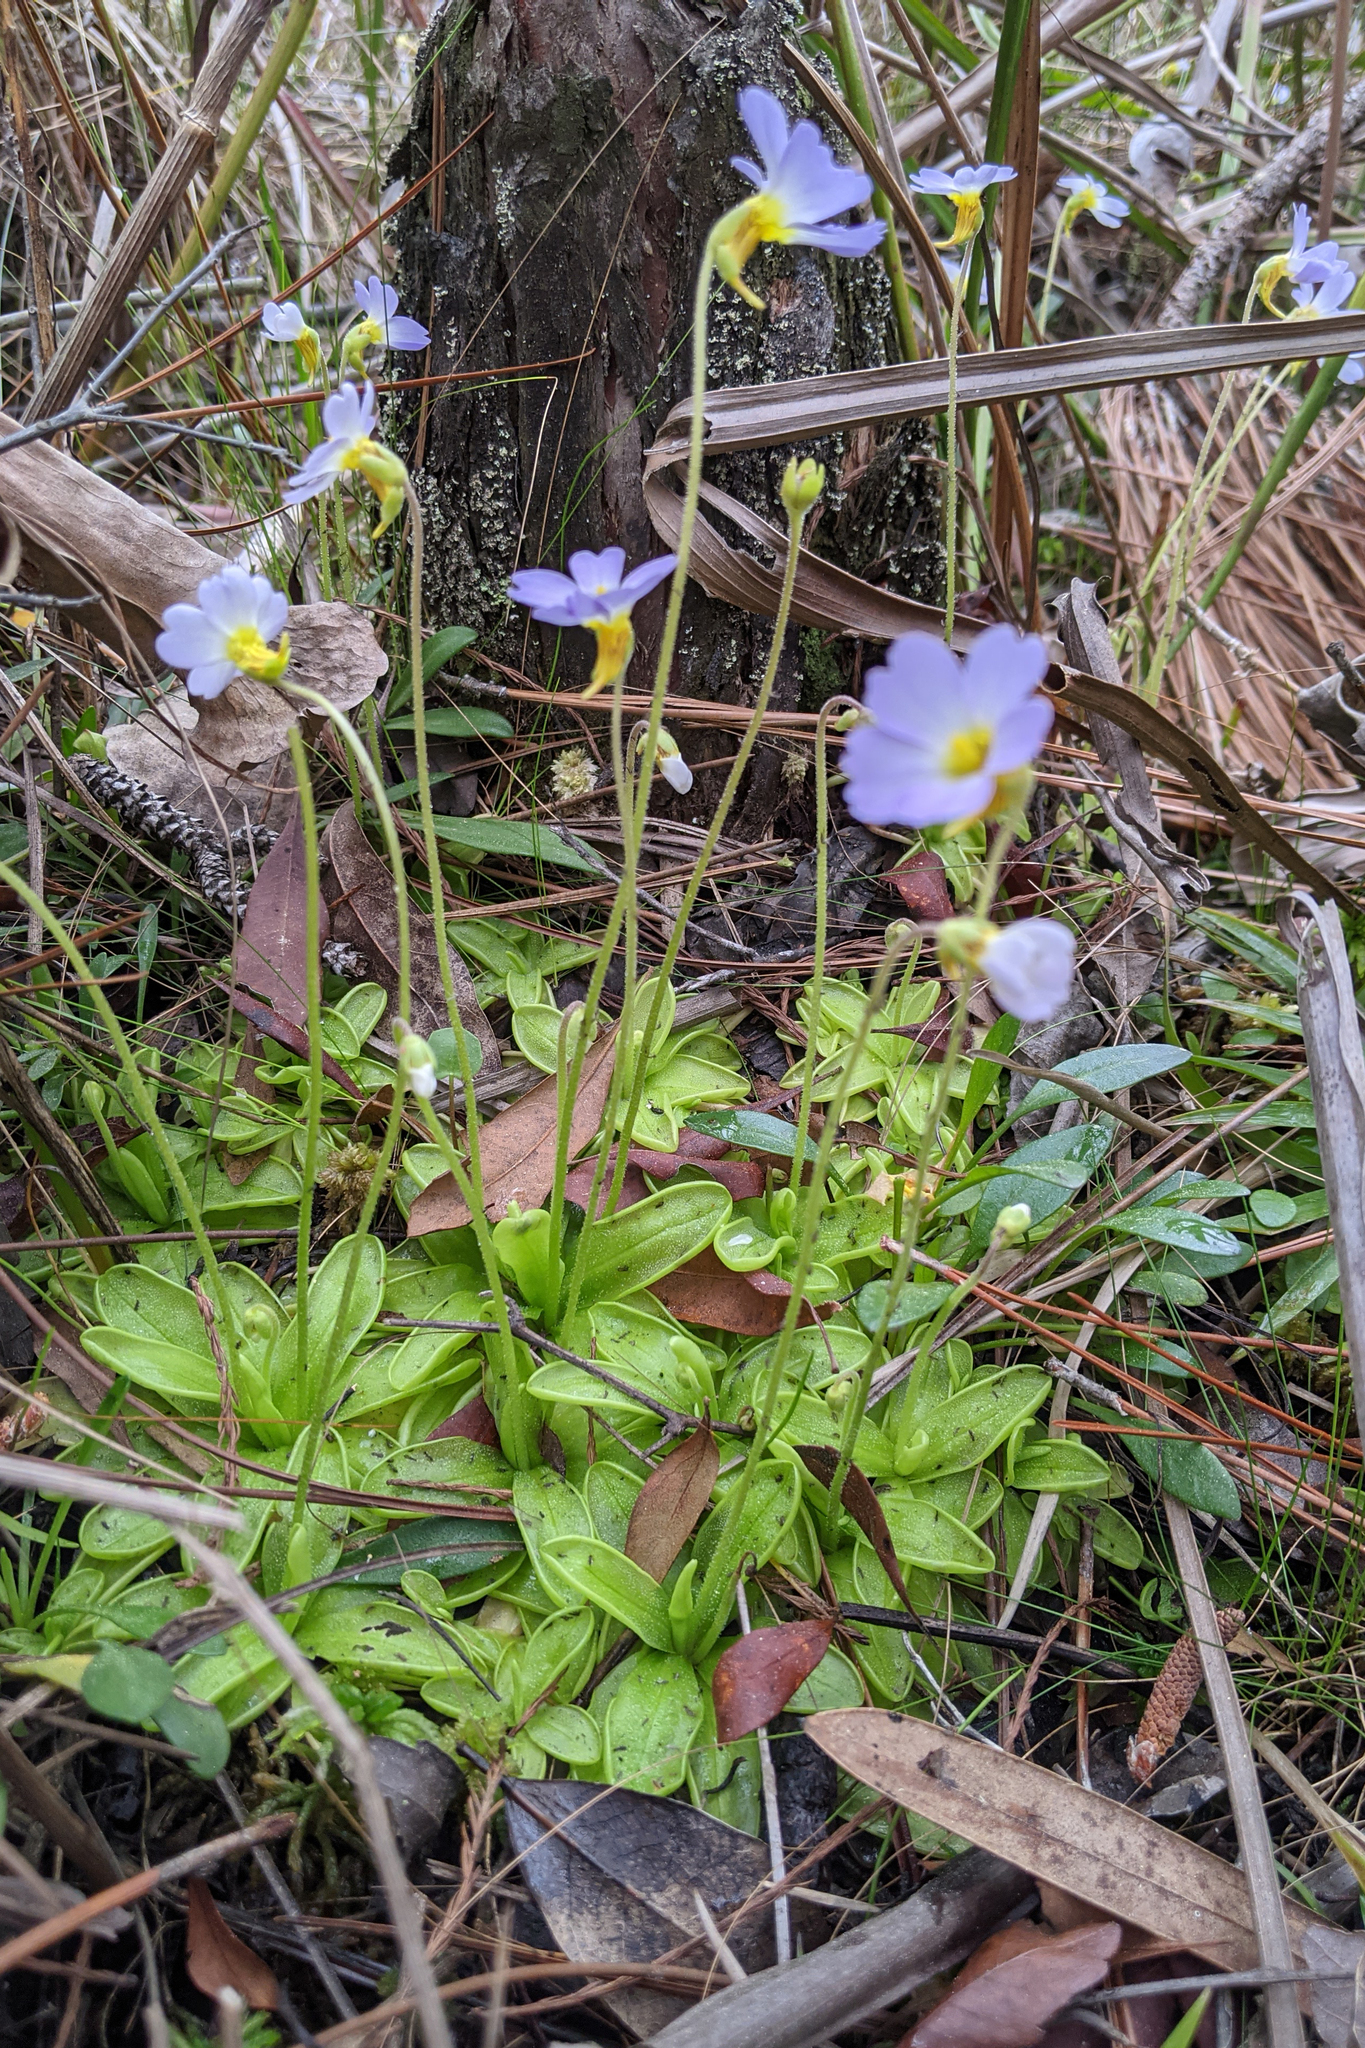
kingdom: Plantae
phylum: Tracheophyta
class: Magnoliopsida
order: Lamiales
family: Lentibulariaceae
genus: Pinguicula
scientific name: Pinguicula primuliflora
